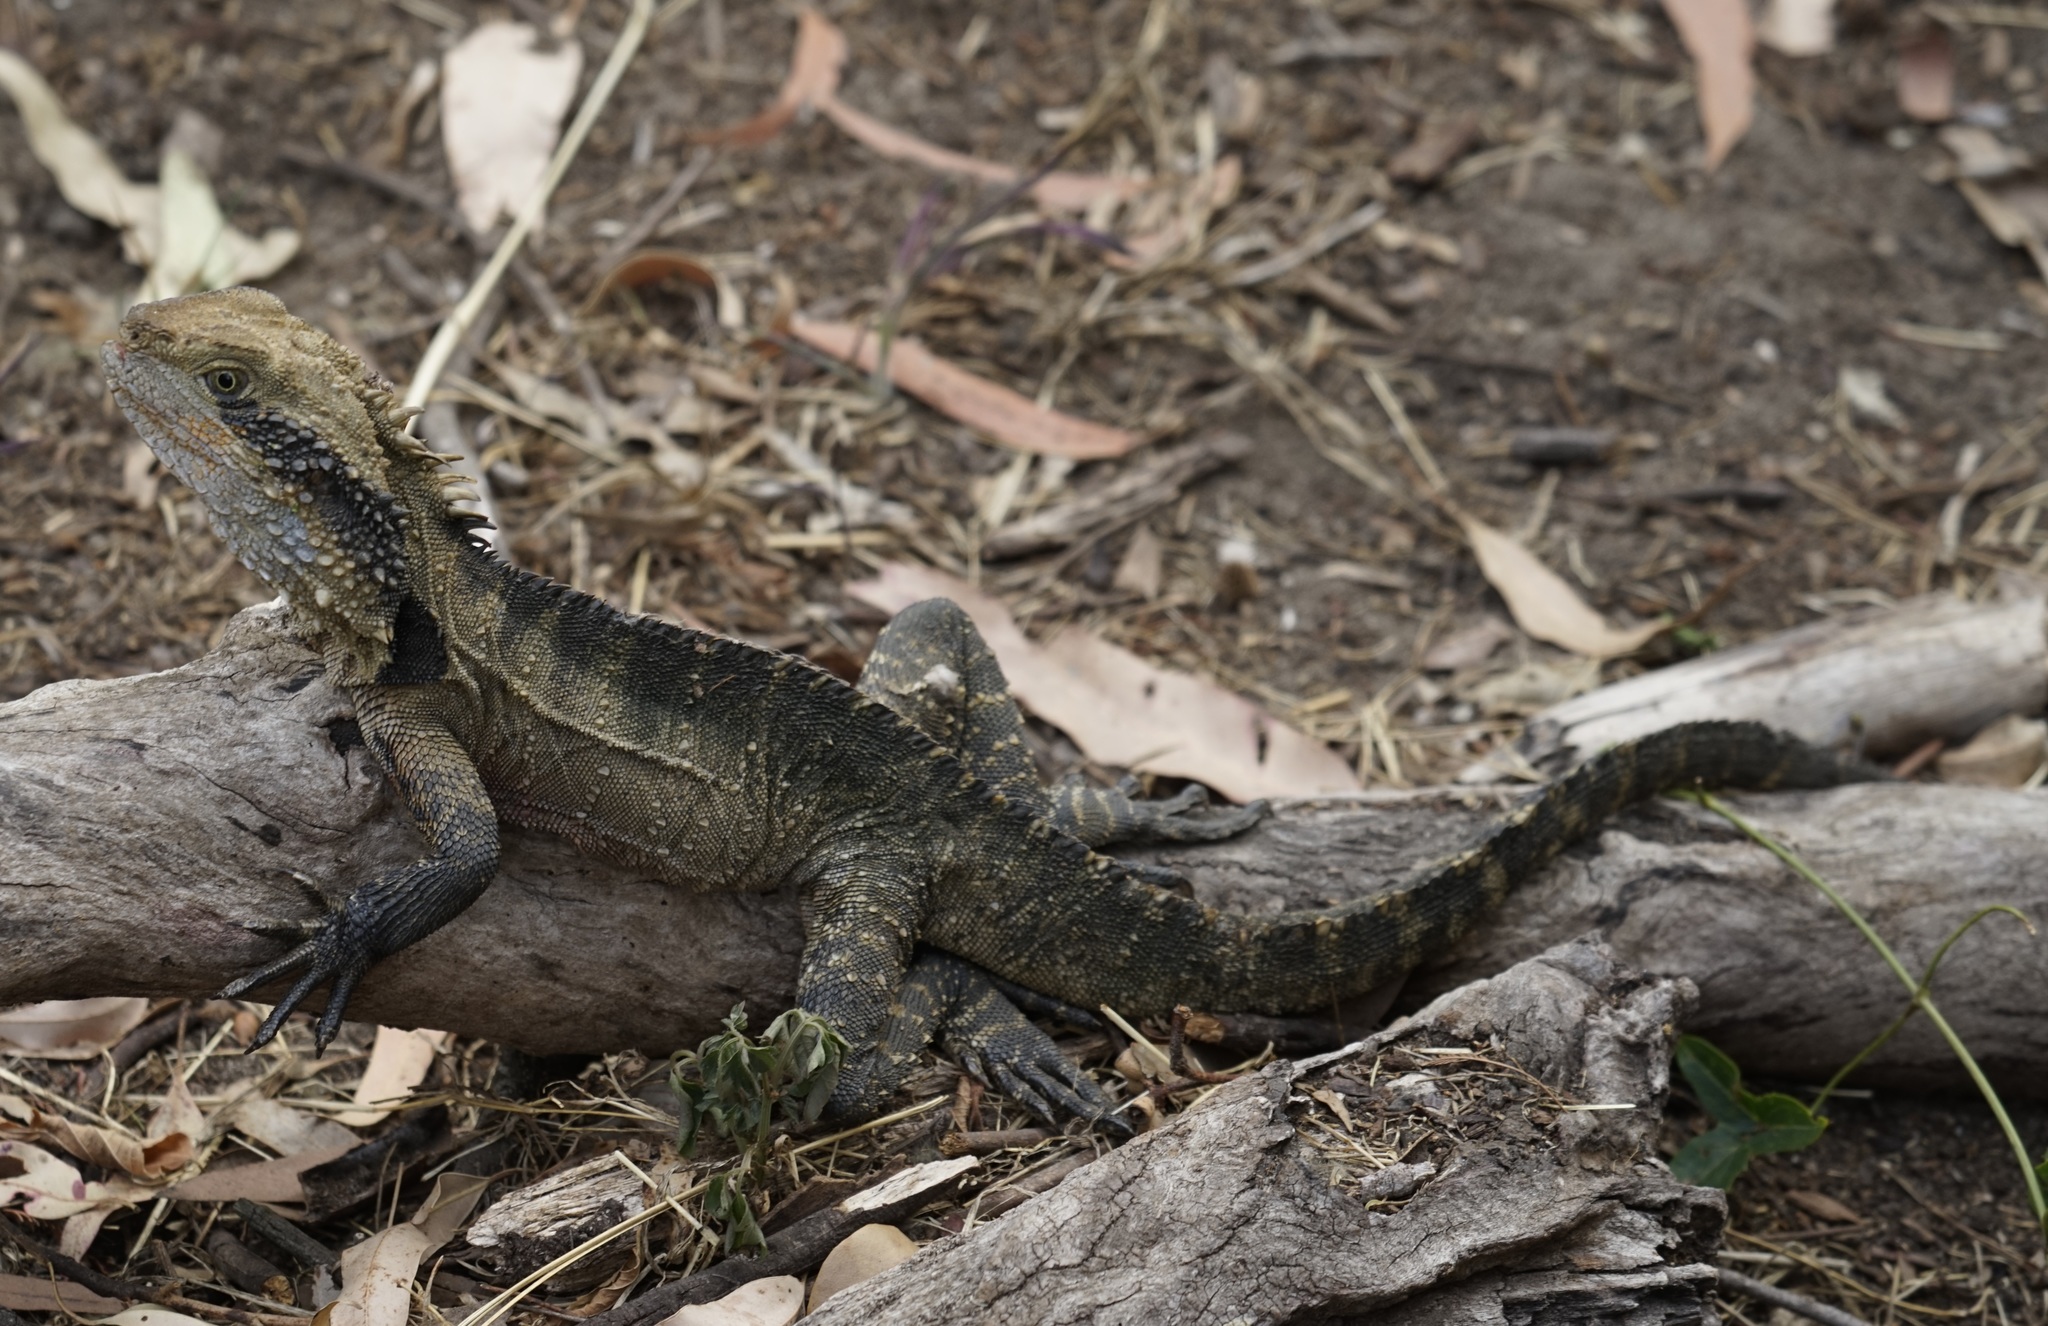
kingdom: Animalia
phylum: Chordata
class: Squamata
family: Agamidae
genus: Intellagama
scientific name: Intellagama lesueurii
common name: Eastern water dragon
